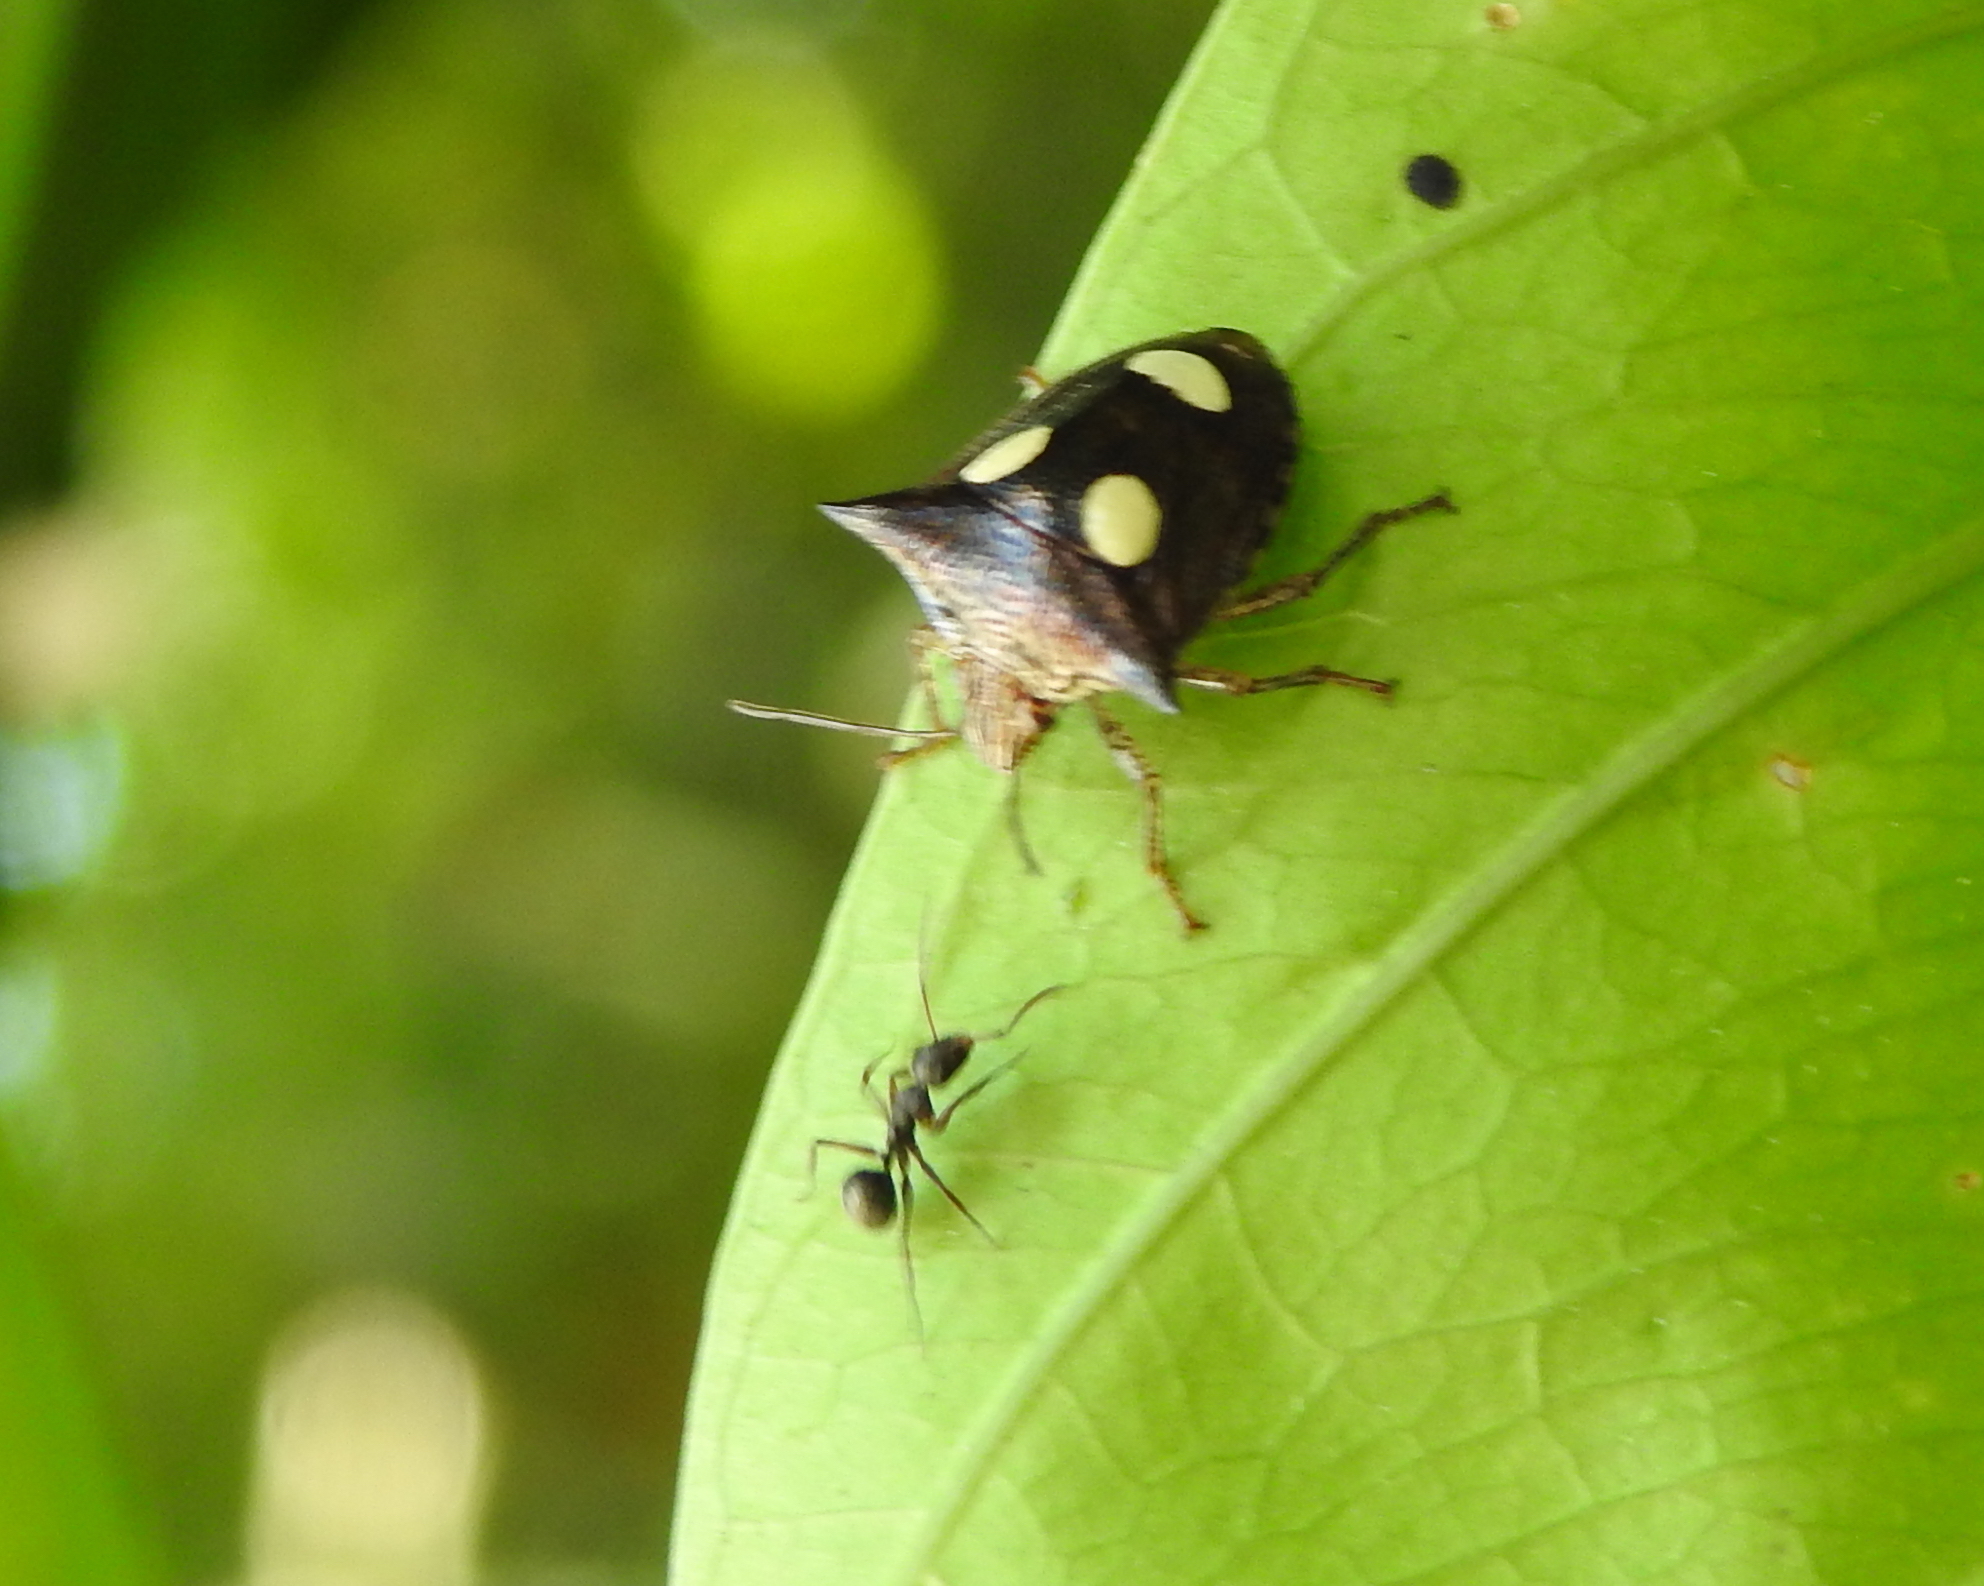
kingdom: Animalia
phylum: Arthropoda
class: Insecta
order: Hemiptera
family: Pentatomidae
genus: Paracritheus
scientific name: Paracritheus
